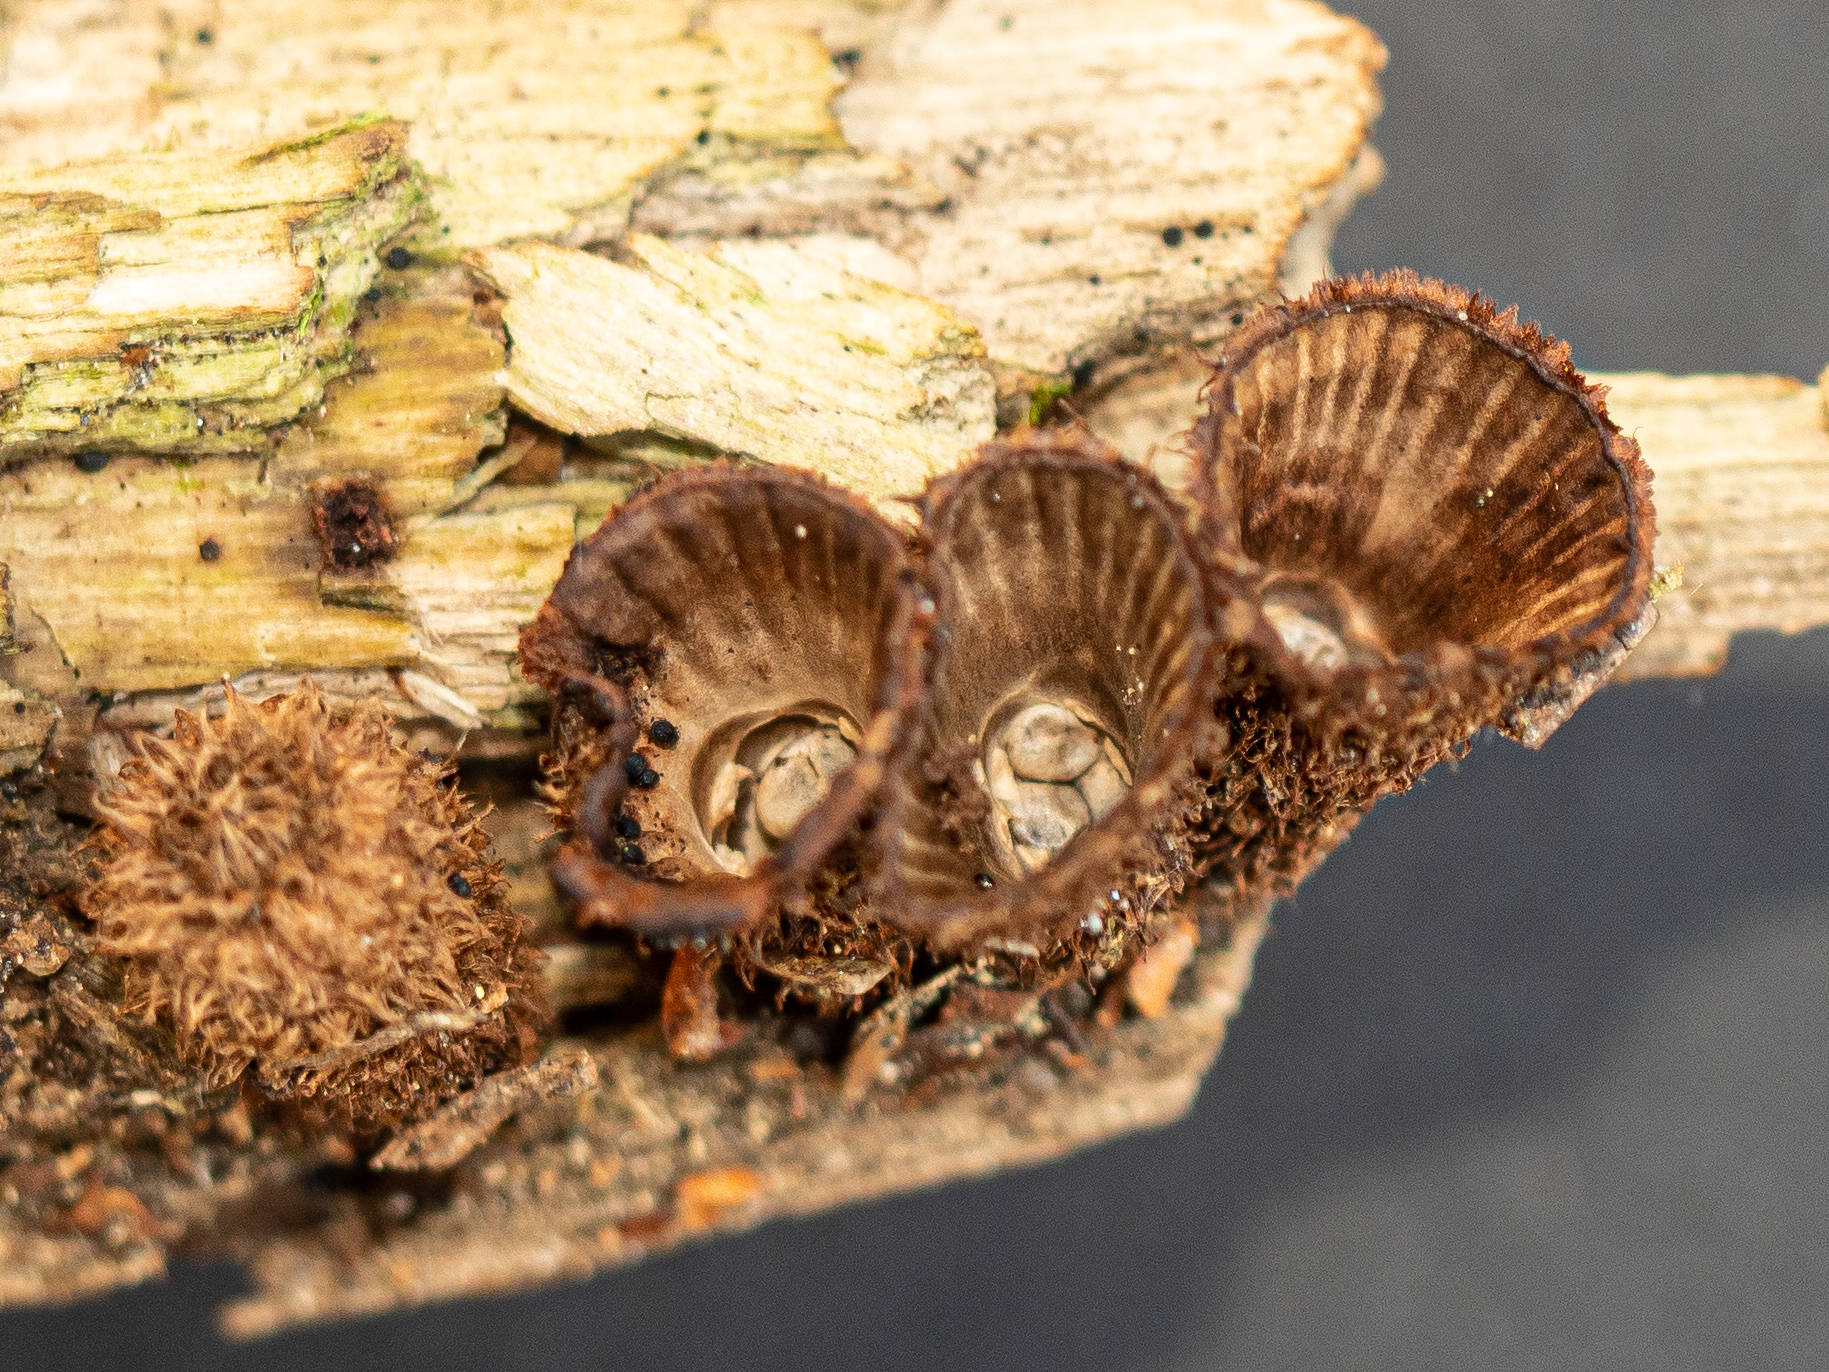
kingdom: Fungi
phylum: Basidiomycota
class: Agaricomycetes
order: Agaricales
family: Agaricaceae
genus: Cyathus
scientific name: Cyathus striatus
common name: Fluted bird's nest
